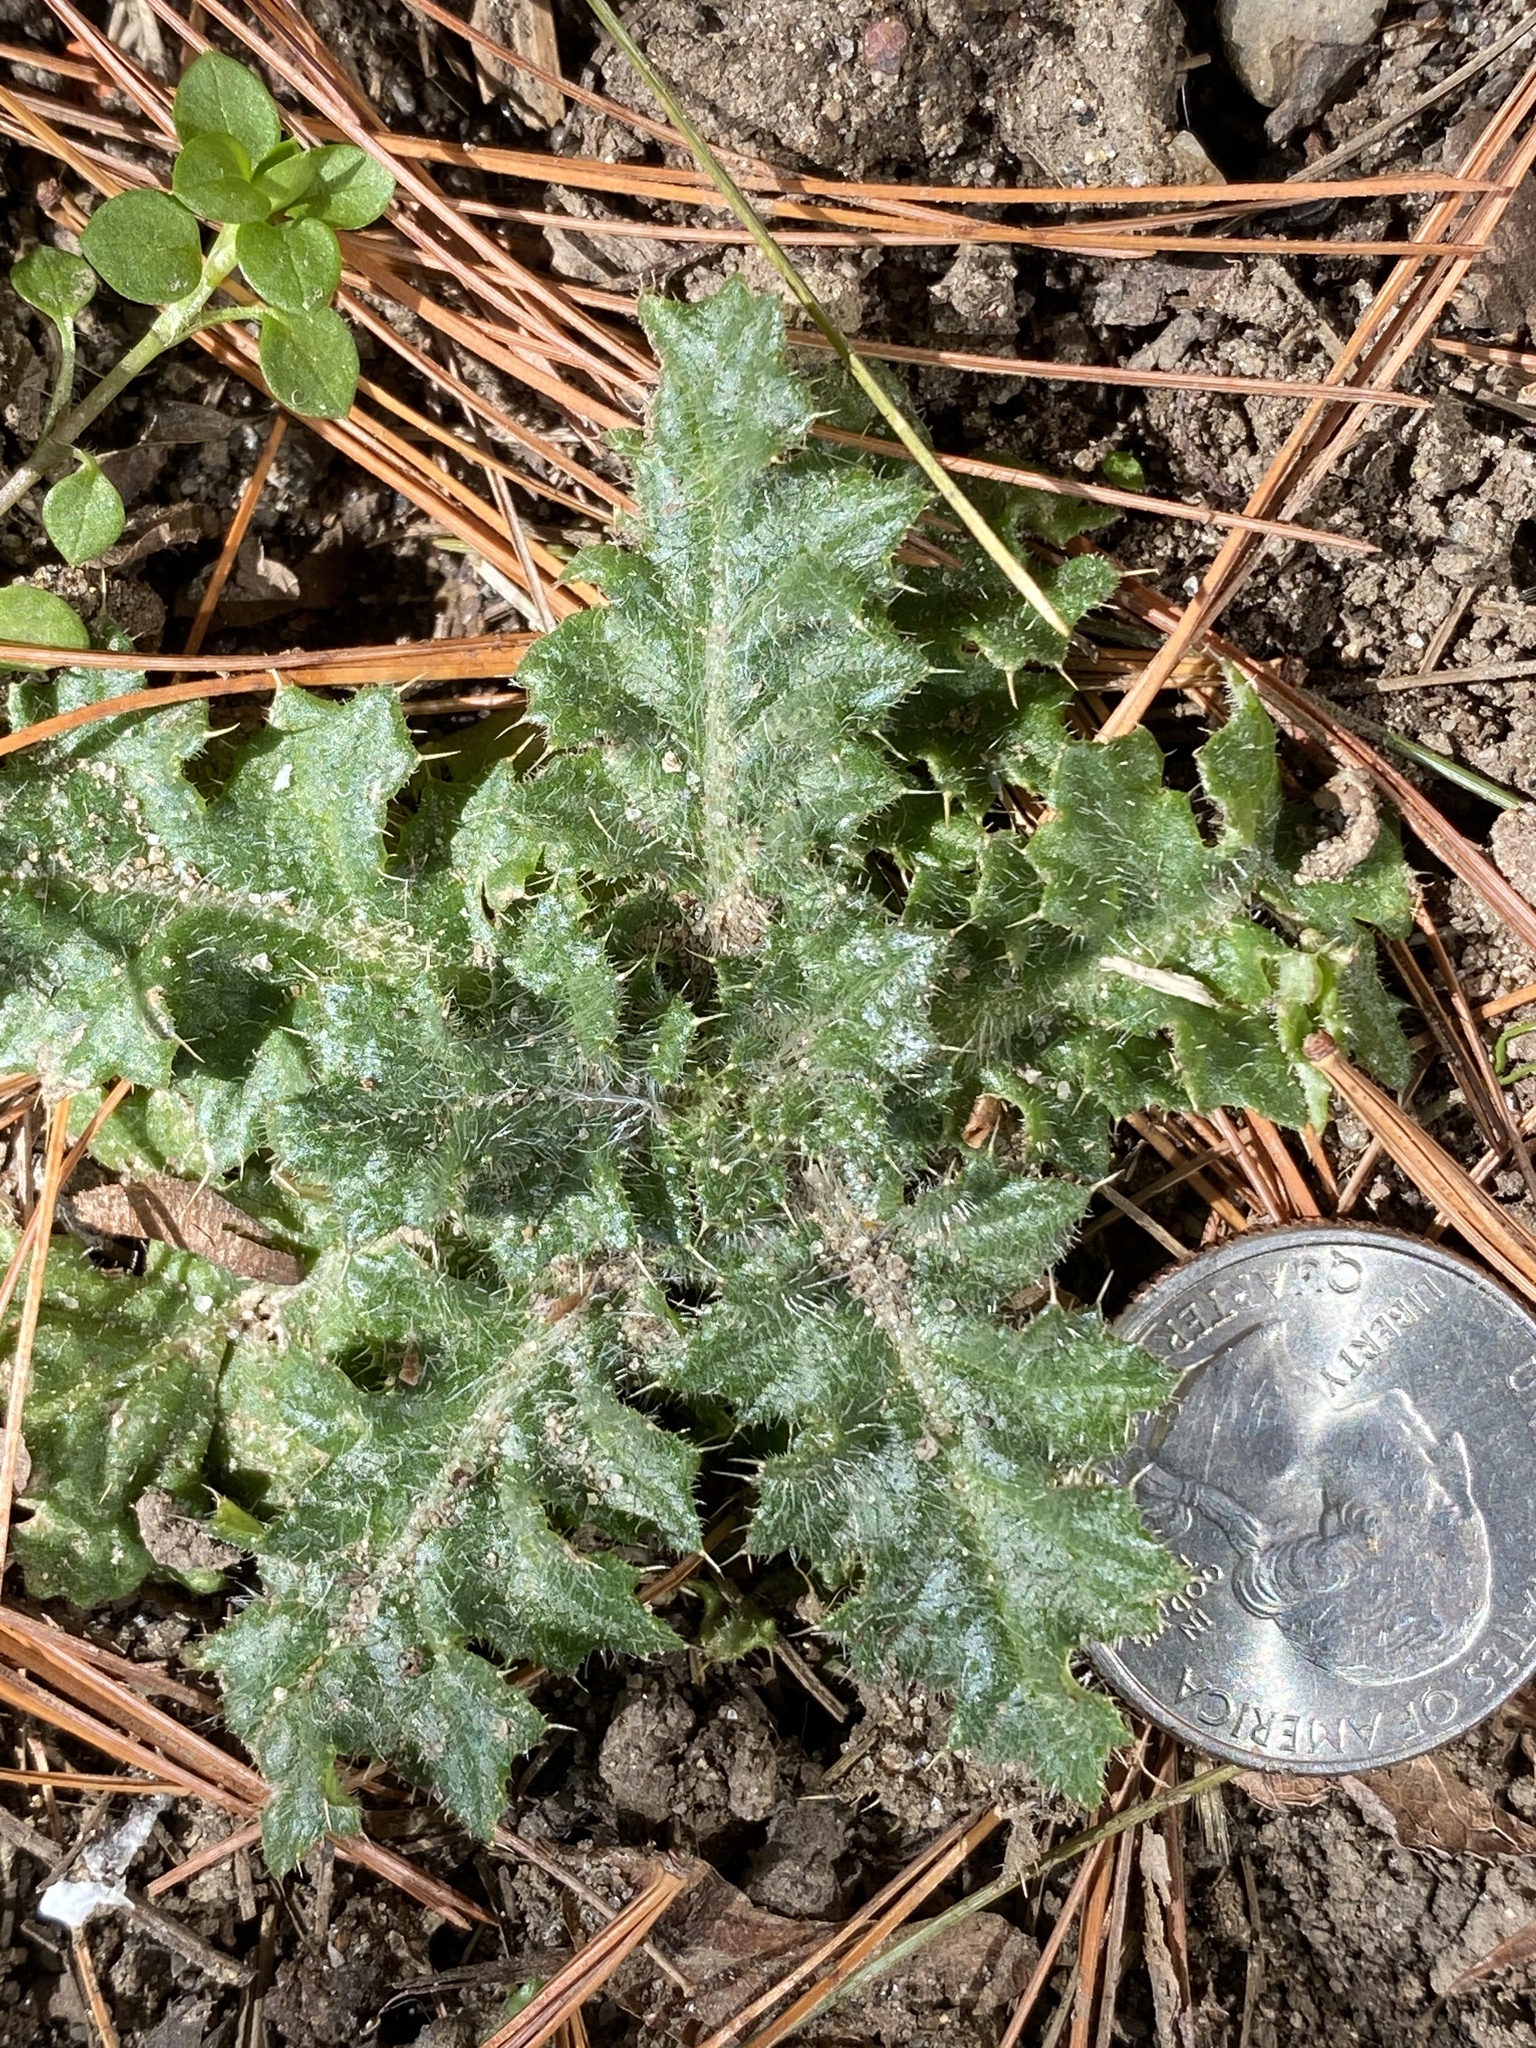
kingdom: Plantae
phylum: Tracheophyta
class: Magnoliopsida
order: Asterales
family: Asteraceae
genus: Cirsium
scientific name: Cirsium vulgare
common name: Bull thistle
